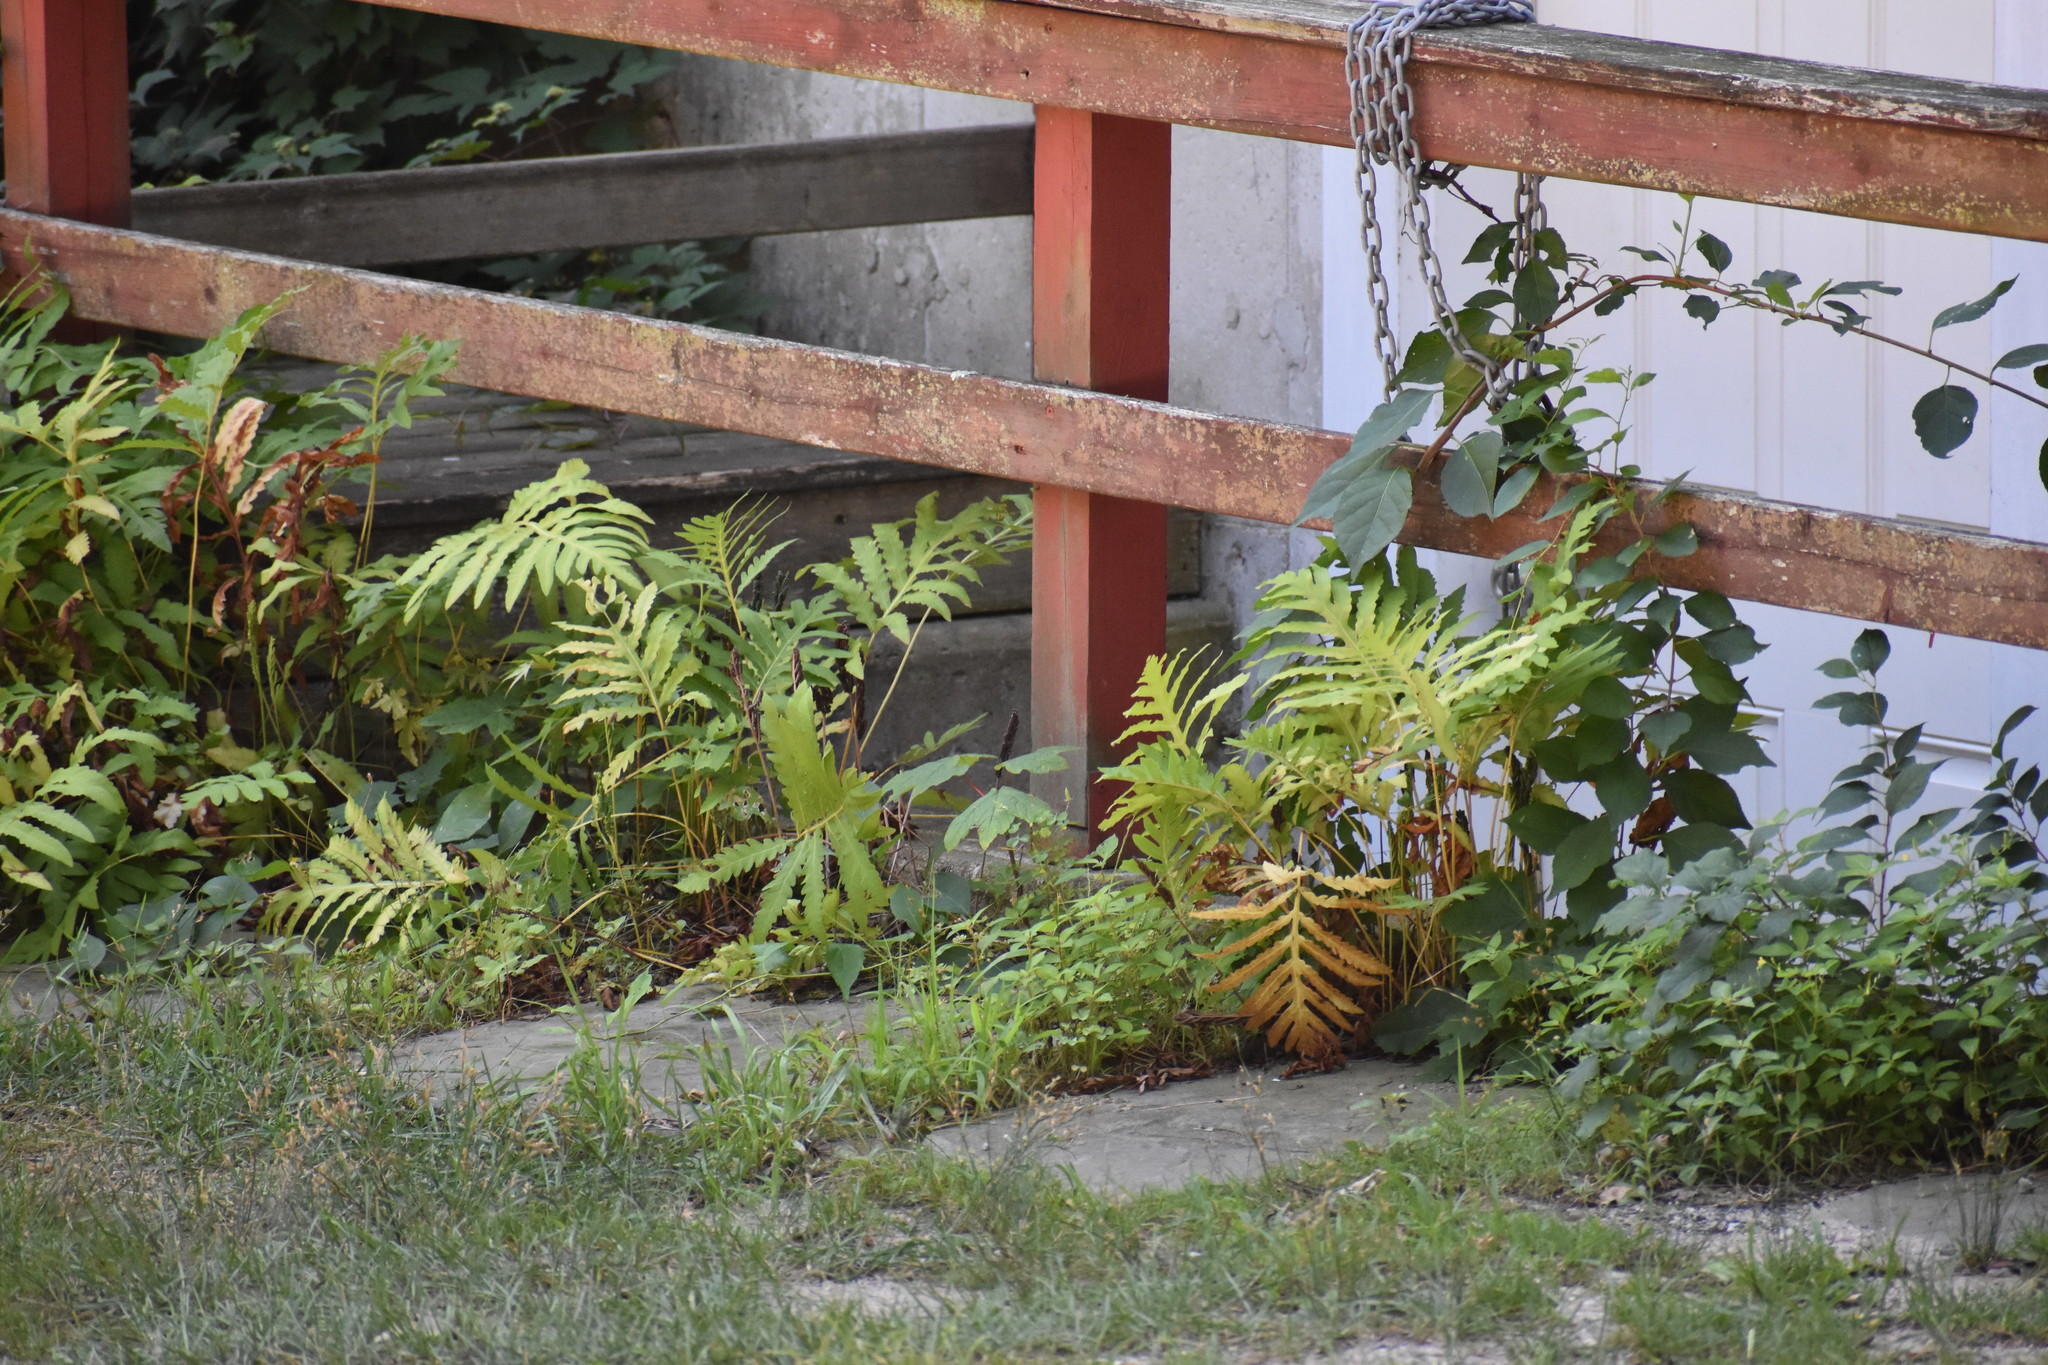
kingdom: Plantae
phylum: Tracheophyta
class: Polypodiopsida
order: Polypodiales
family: Onocleaceae
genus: Onoclea
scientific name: Onoclea sensibilis
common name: Sensitive fern
